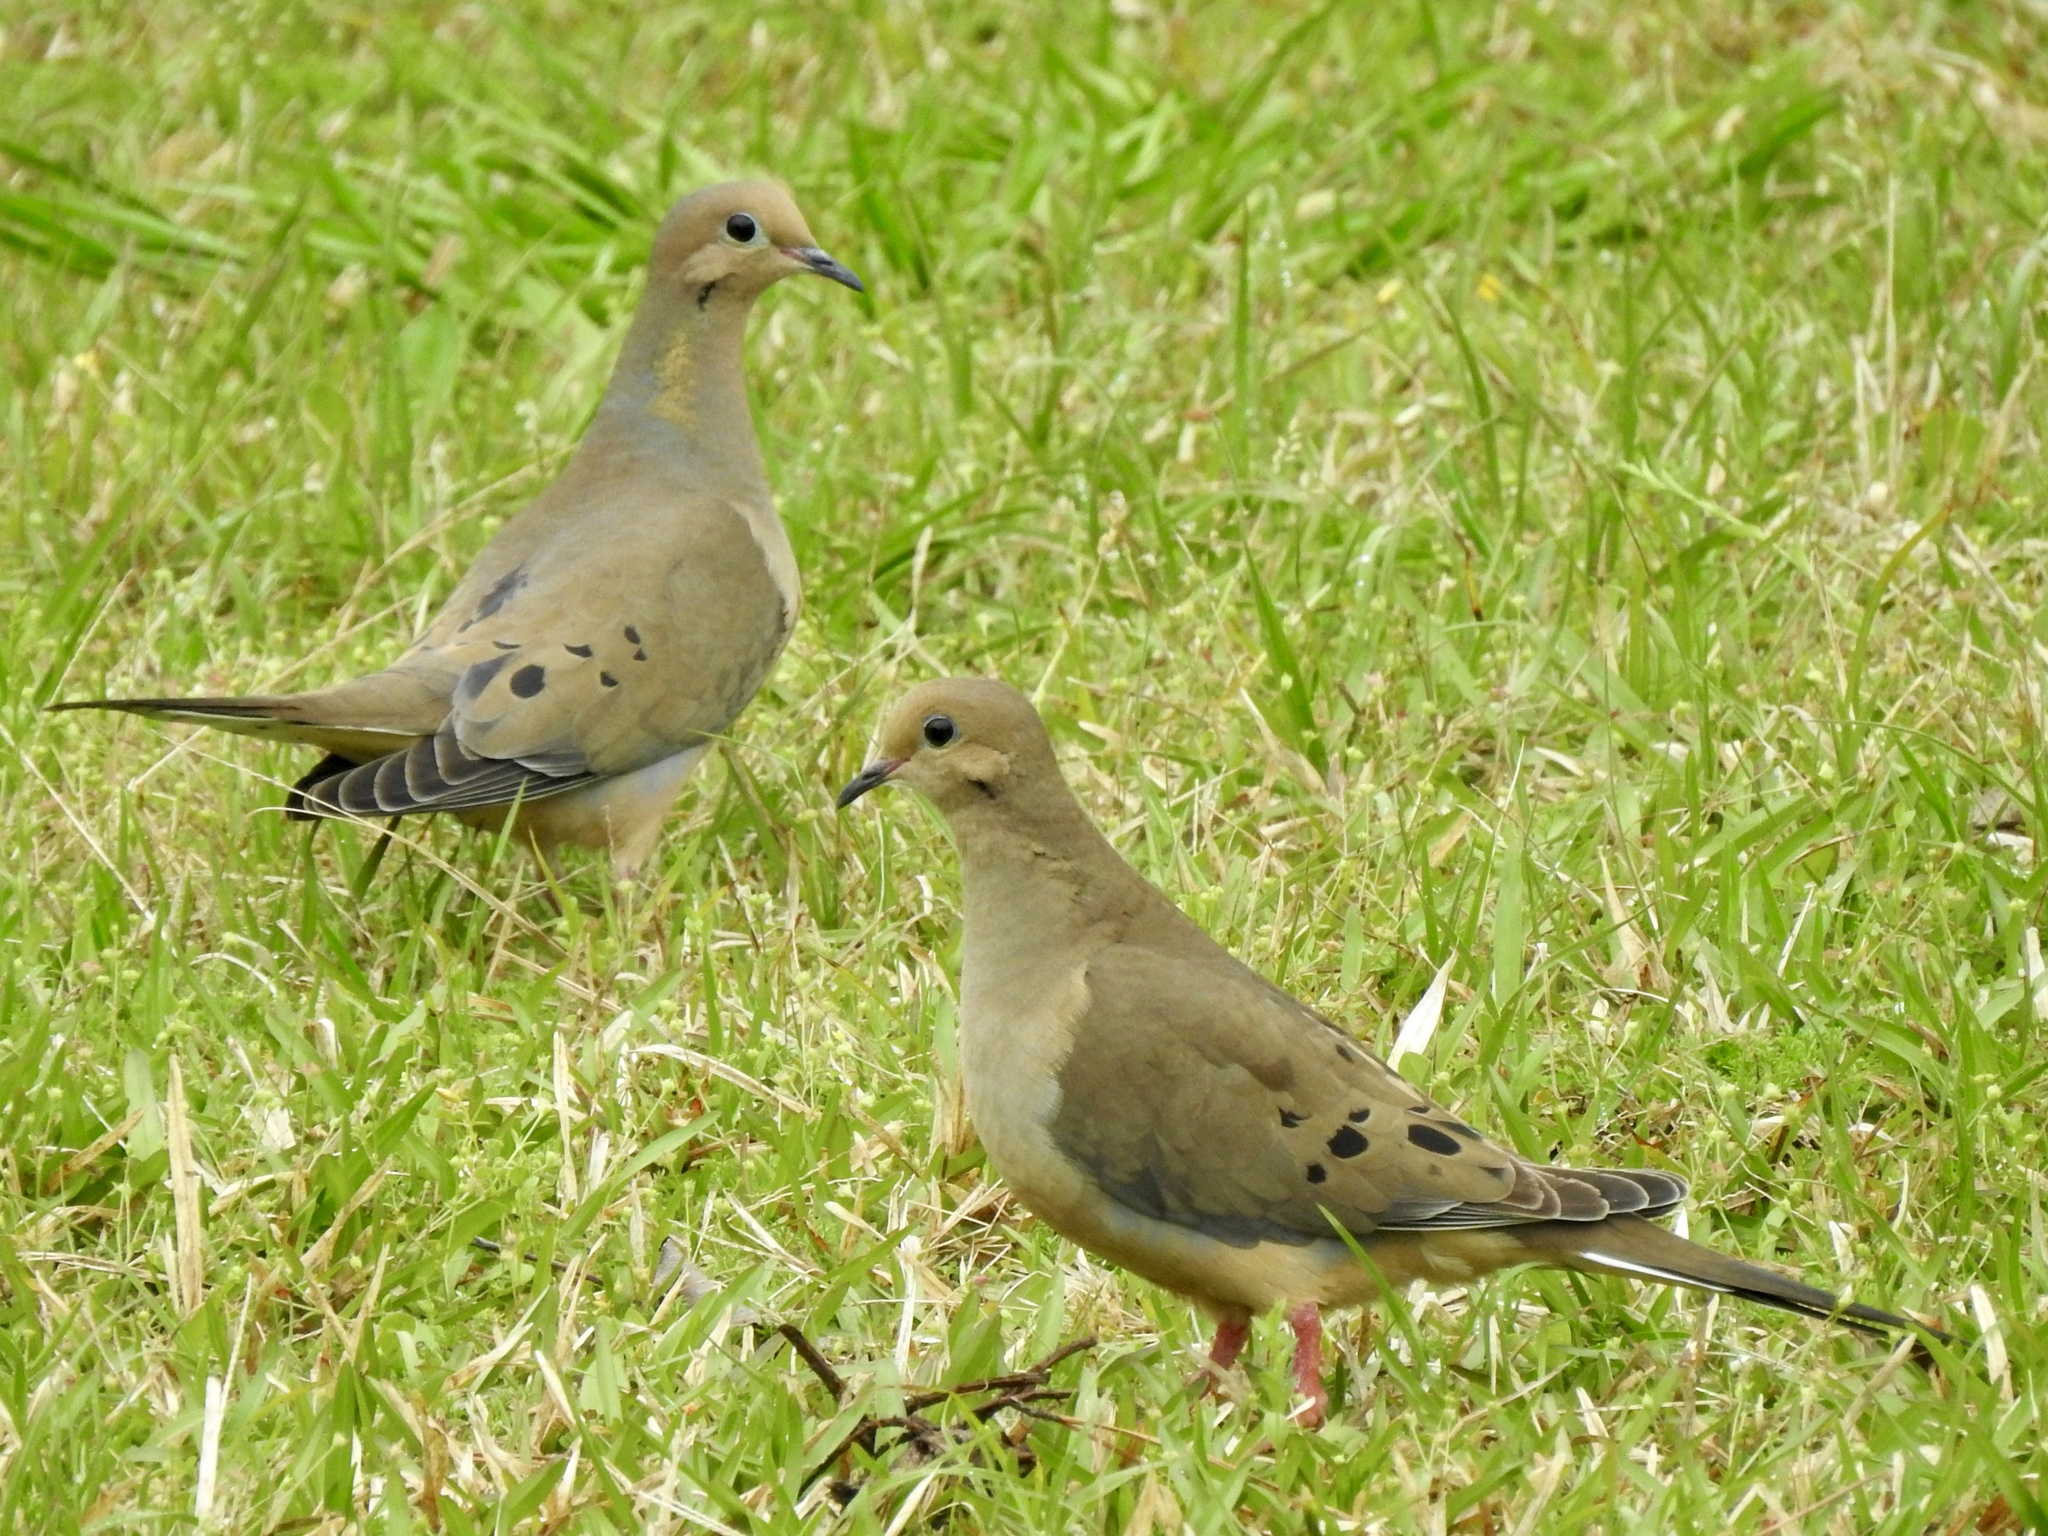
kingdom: Animalia
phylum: Chordata
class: Aves
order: Columbiformes
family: Columbidae
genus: Zenaida
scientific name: Zenaida macroura
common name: Mourning dove
